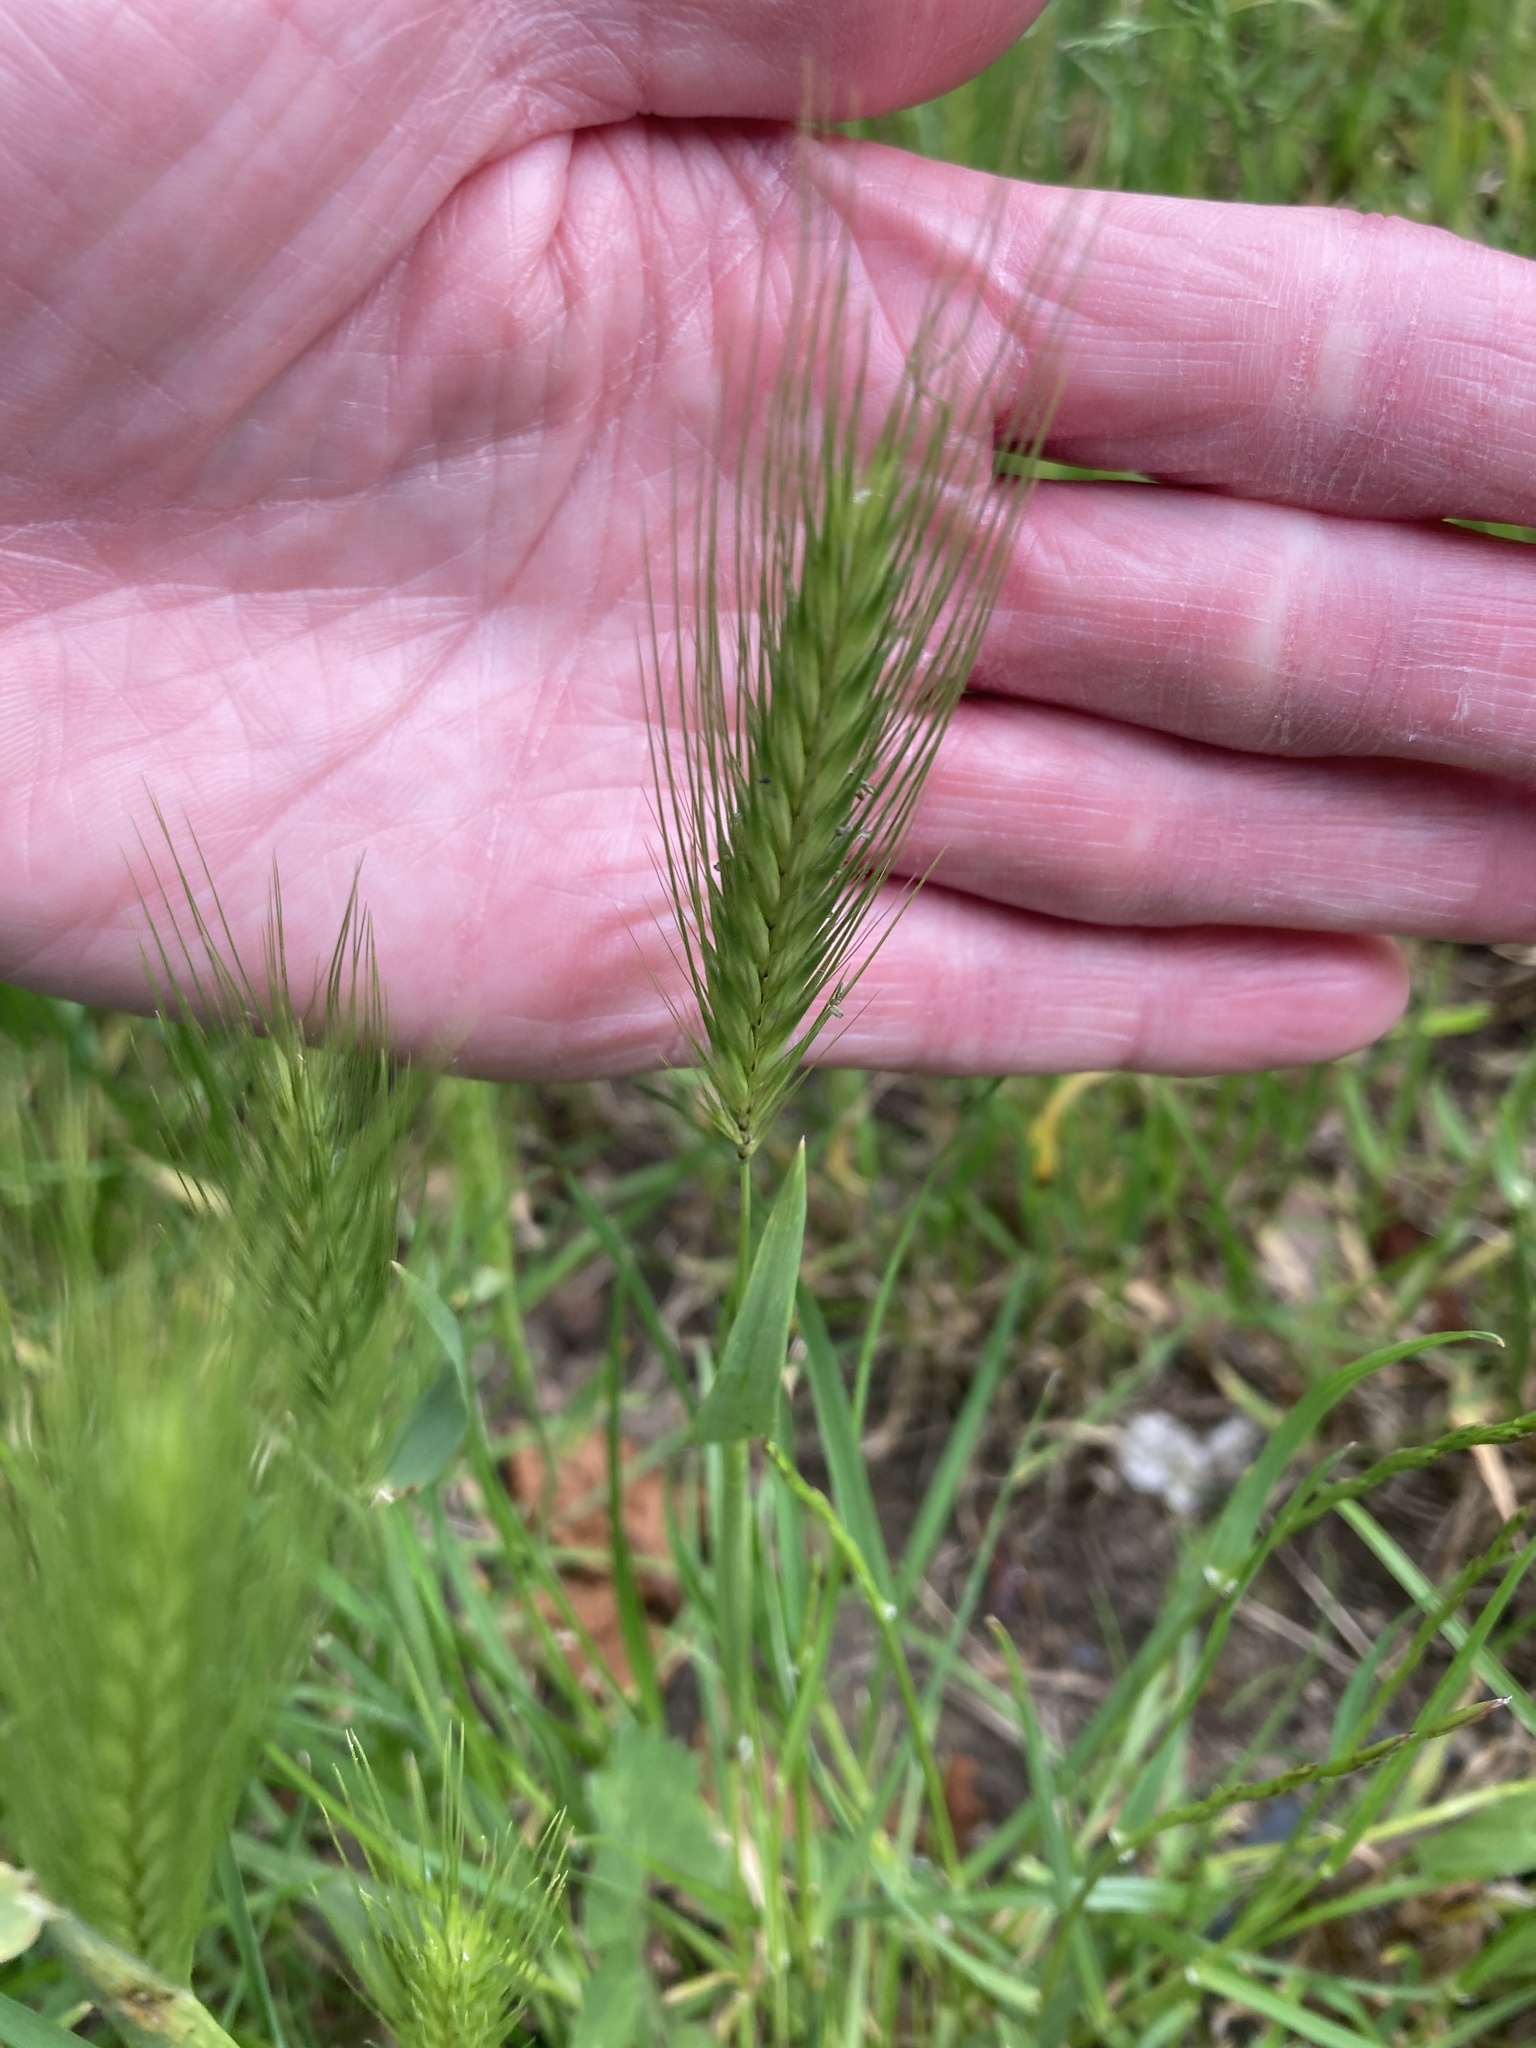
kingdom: Plantae
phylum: Tracheophyta
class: Liliopsida
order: Poales
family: Poaceae
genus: Hordeum
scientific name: Hordeum murinum
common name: Wall barley
